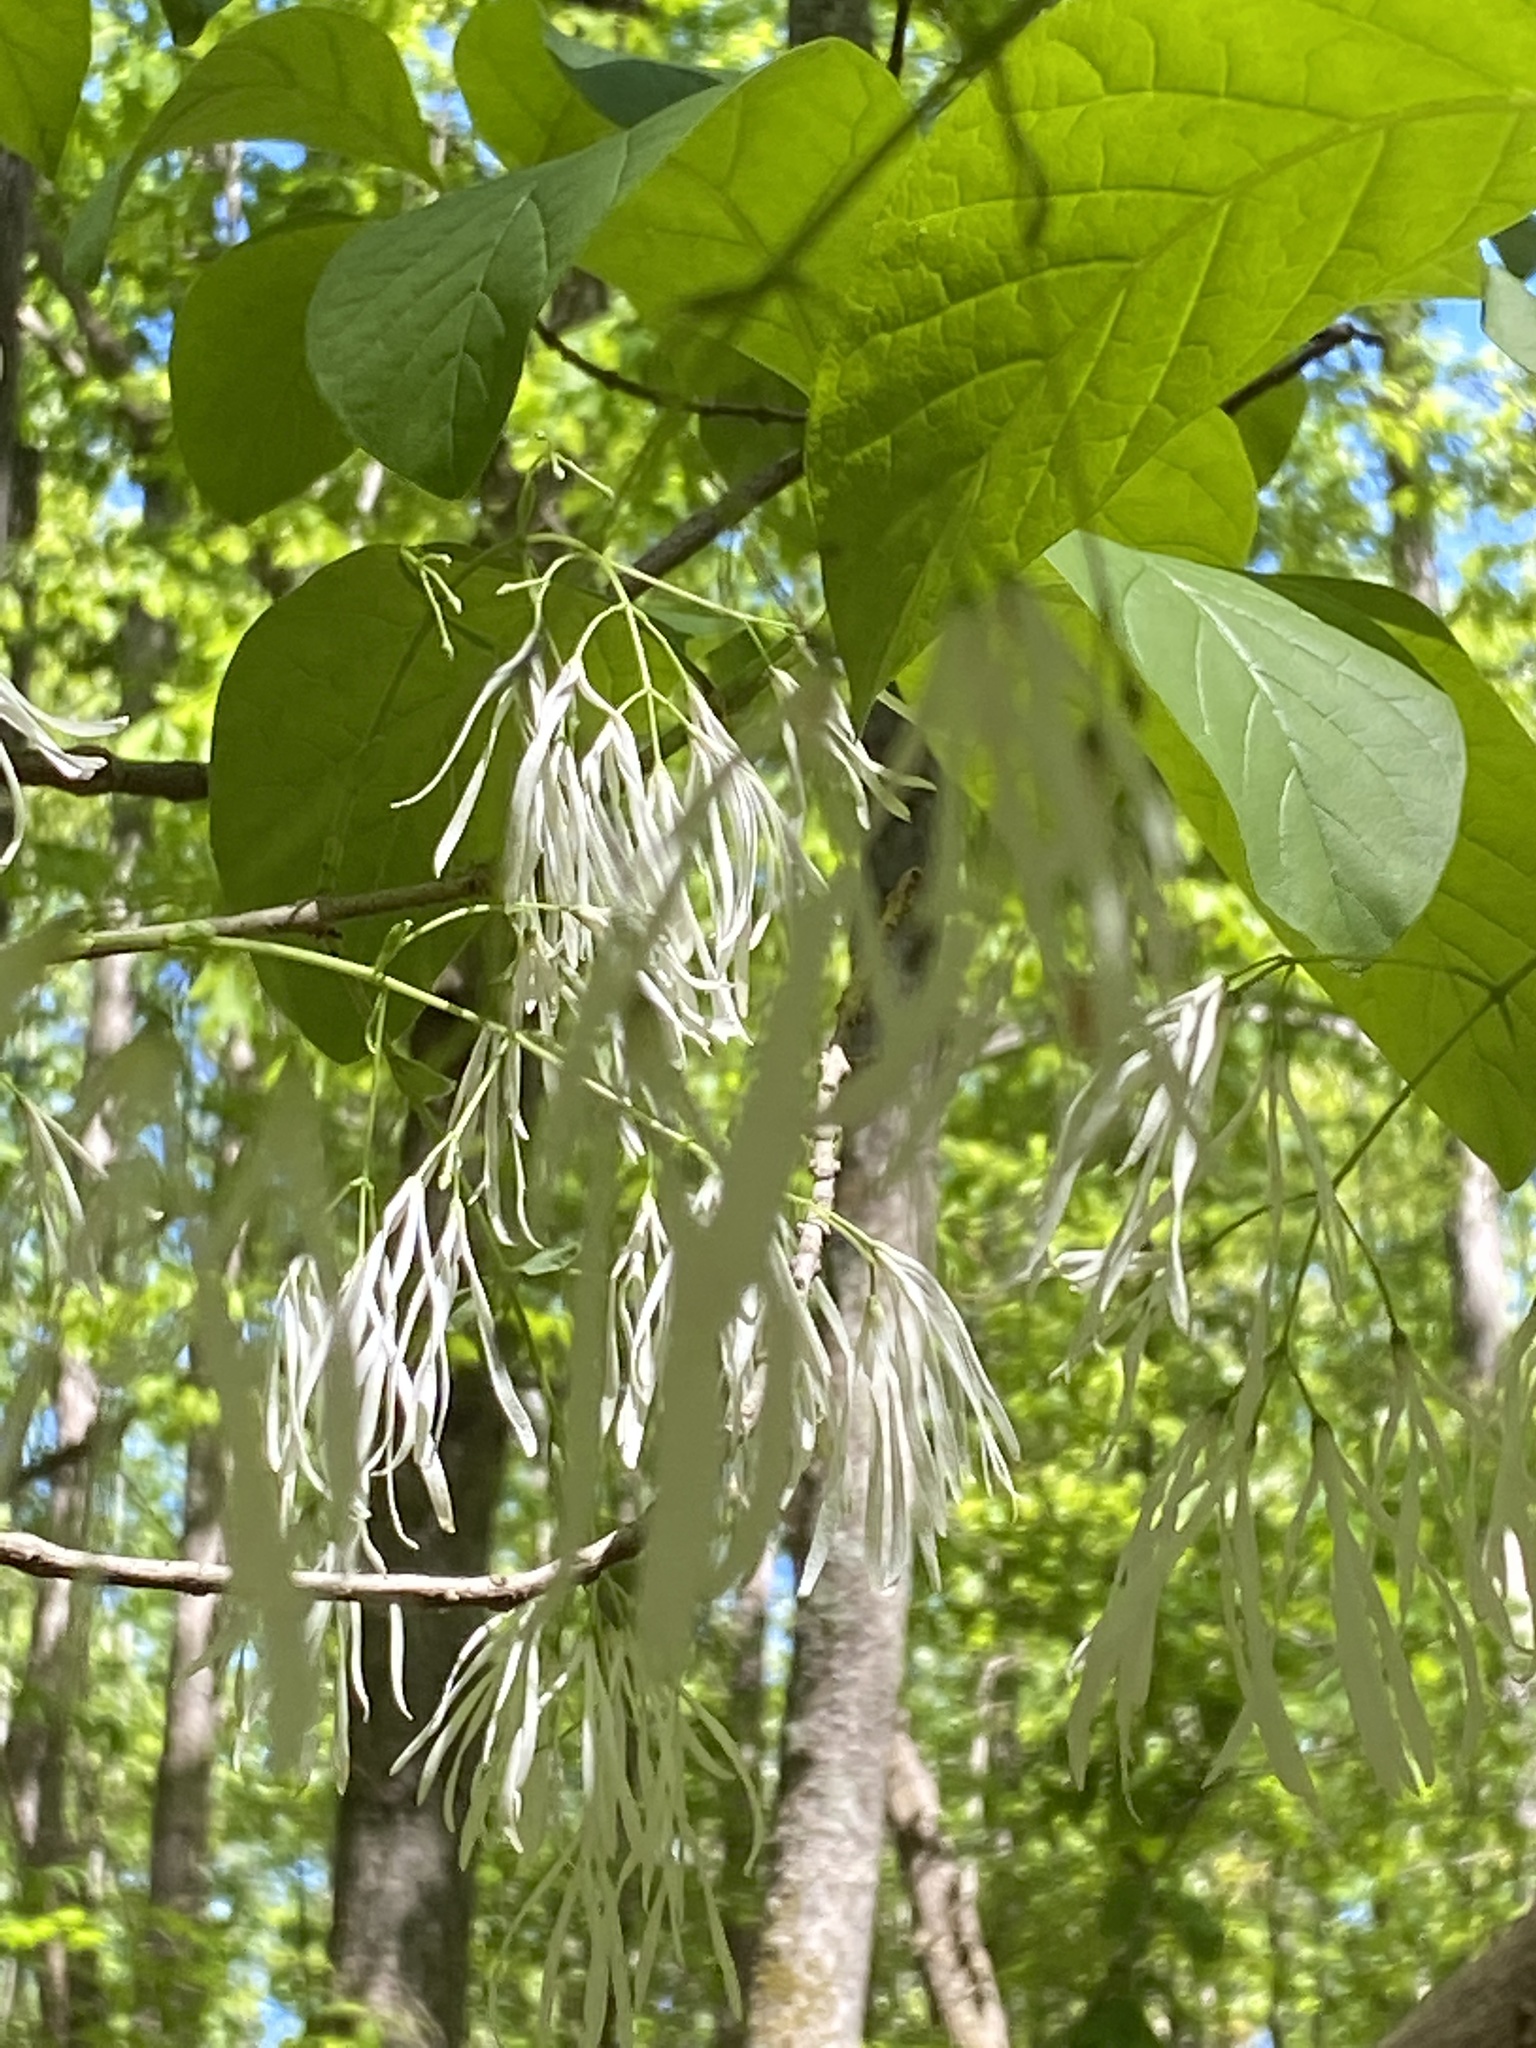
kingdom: Plantae
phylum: Tracheophyta
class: Magnoliopsida
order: Lamiales
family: Oleaceae
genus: Chionanthus
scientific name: Chionanthus virginicus
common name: American fringetree
